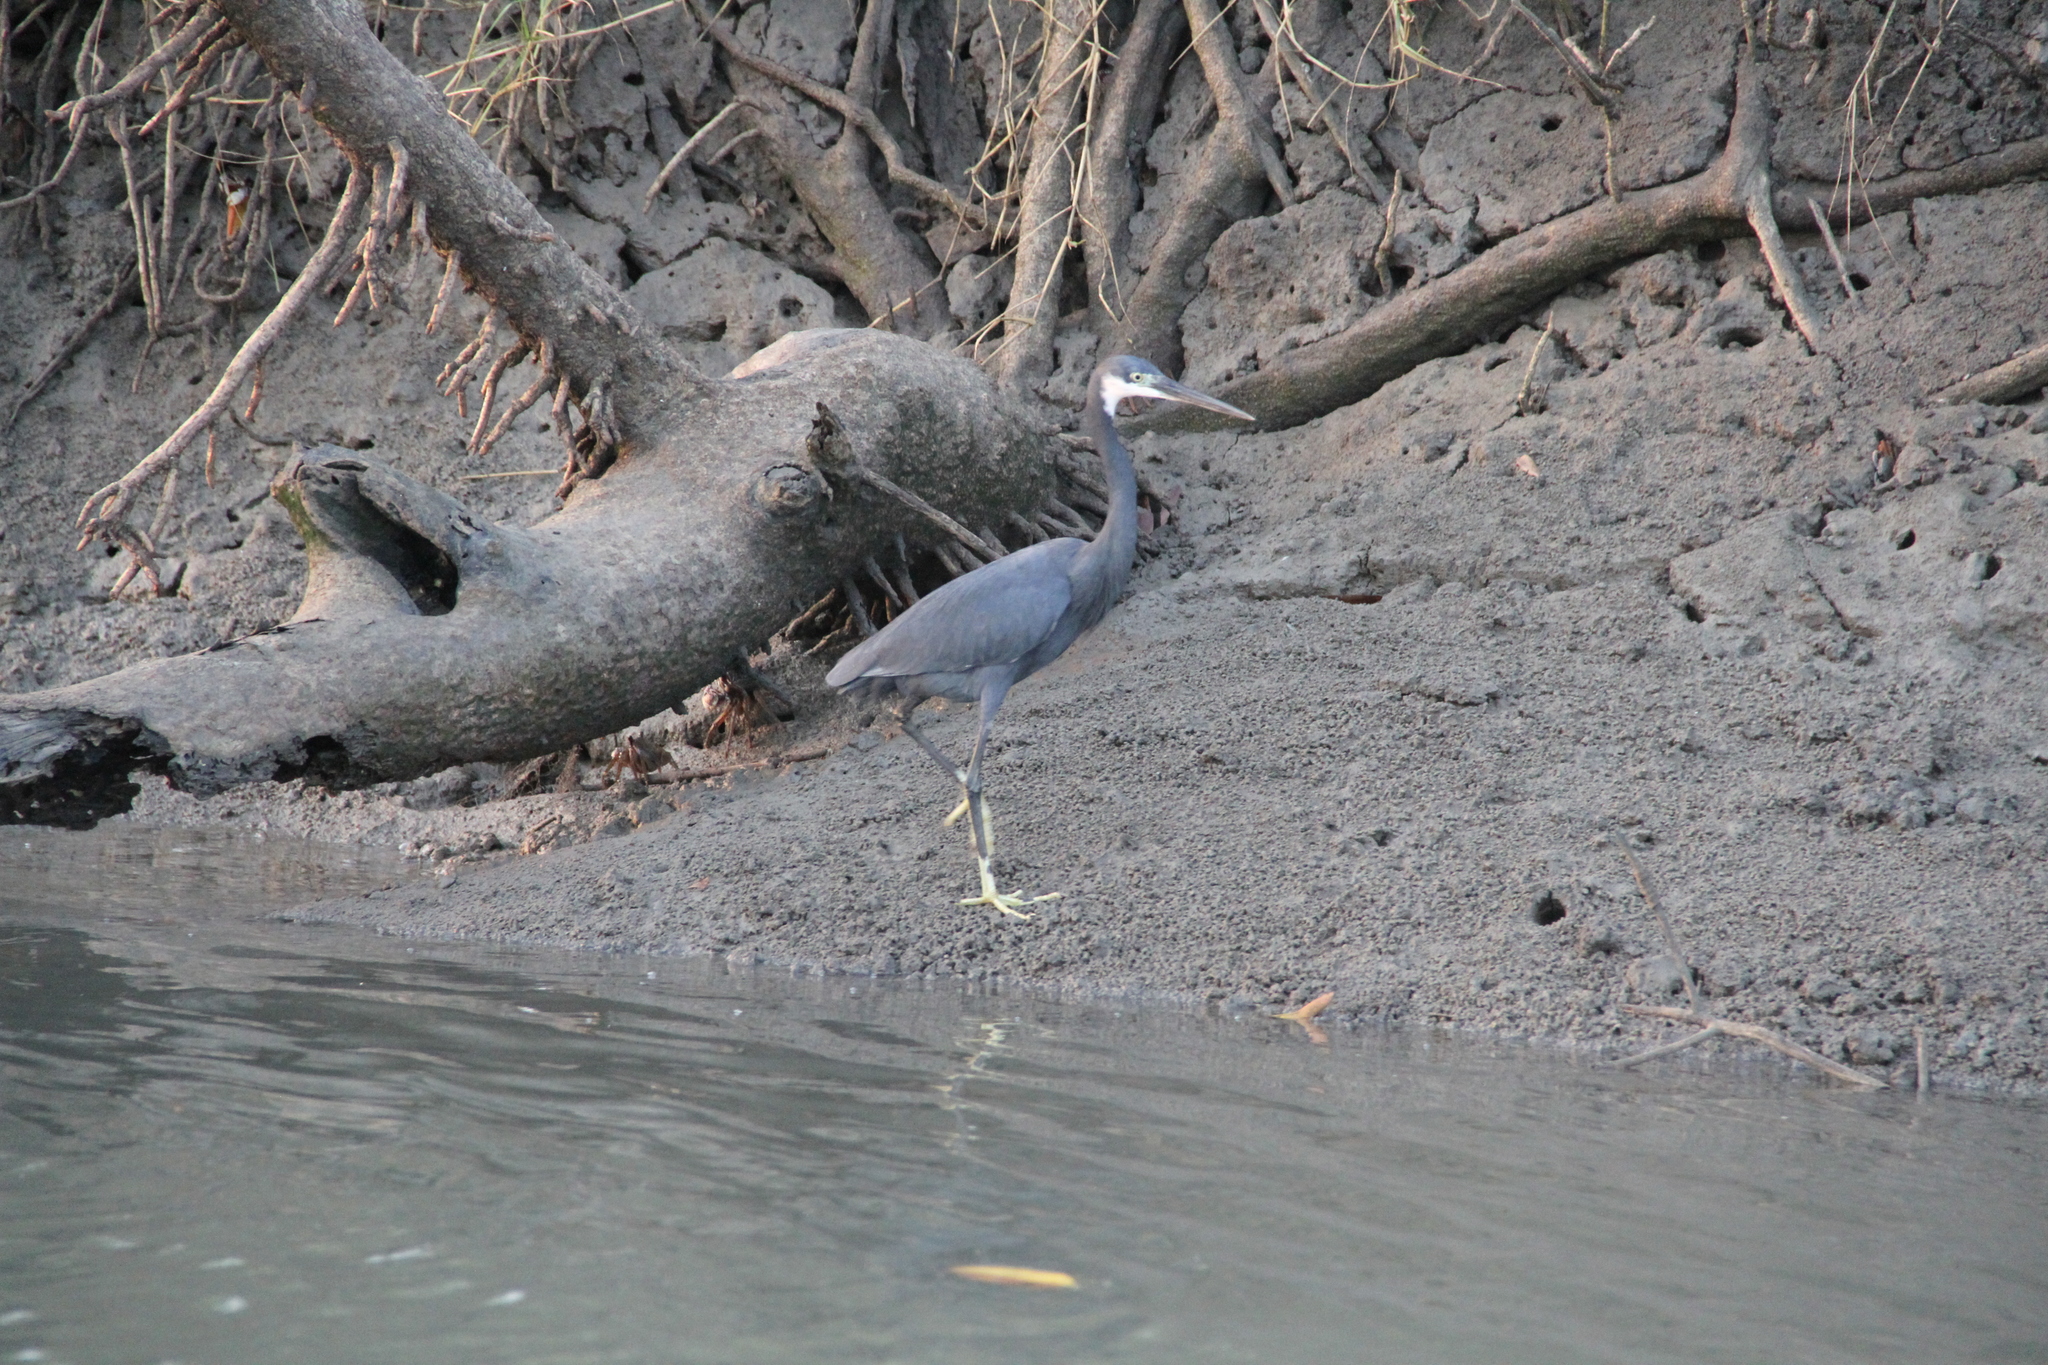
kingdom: Animalia
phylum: Chordata
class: Aves
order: Pelecaniformes
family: Ardeidae
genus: Egretta
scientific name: Egretta gularis
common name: Western reef-heron
